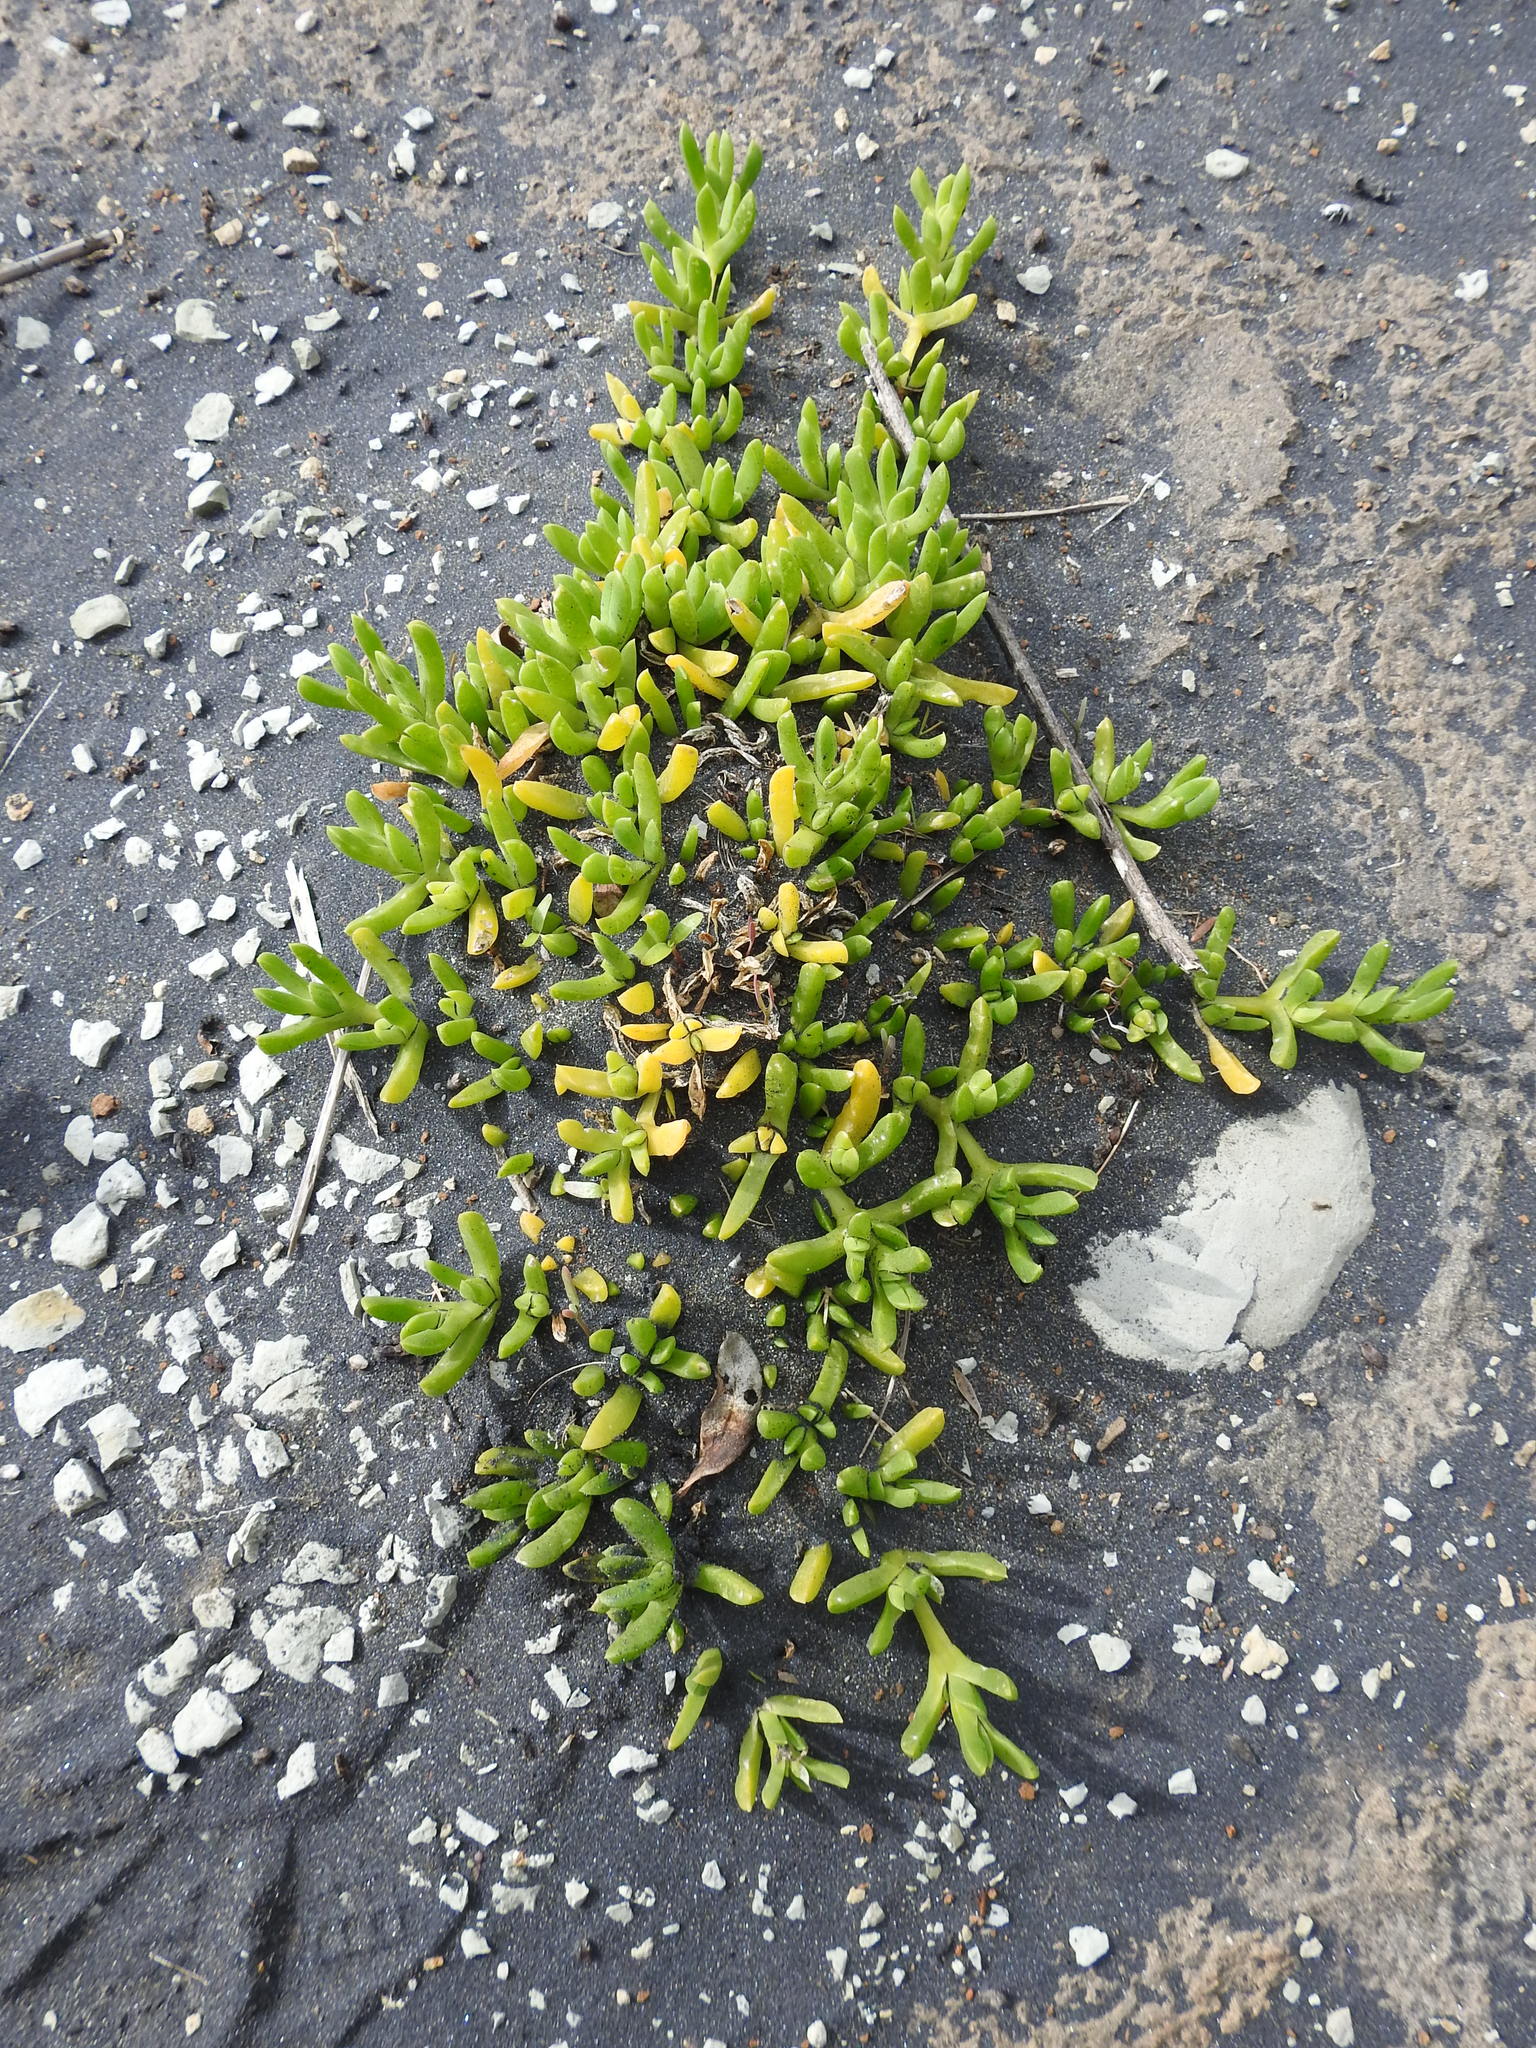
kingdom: Plantae
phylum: Tracheophyta
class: Magnoliopsida
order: Caryophyllales
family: Aizoaceae
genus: Disphyma
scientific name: Disphyma australe
